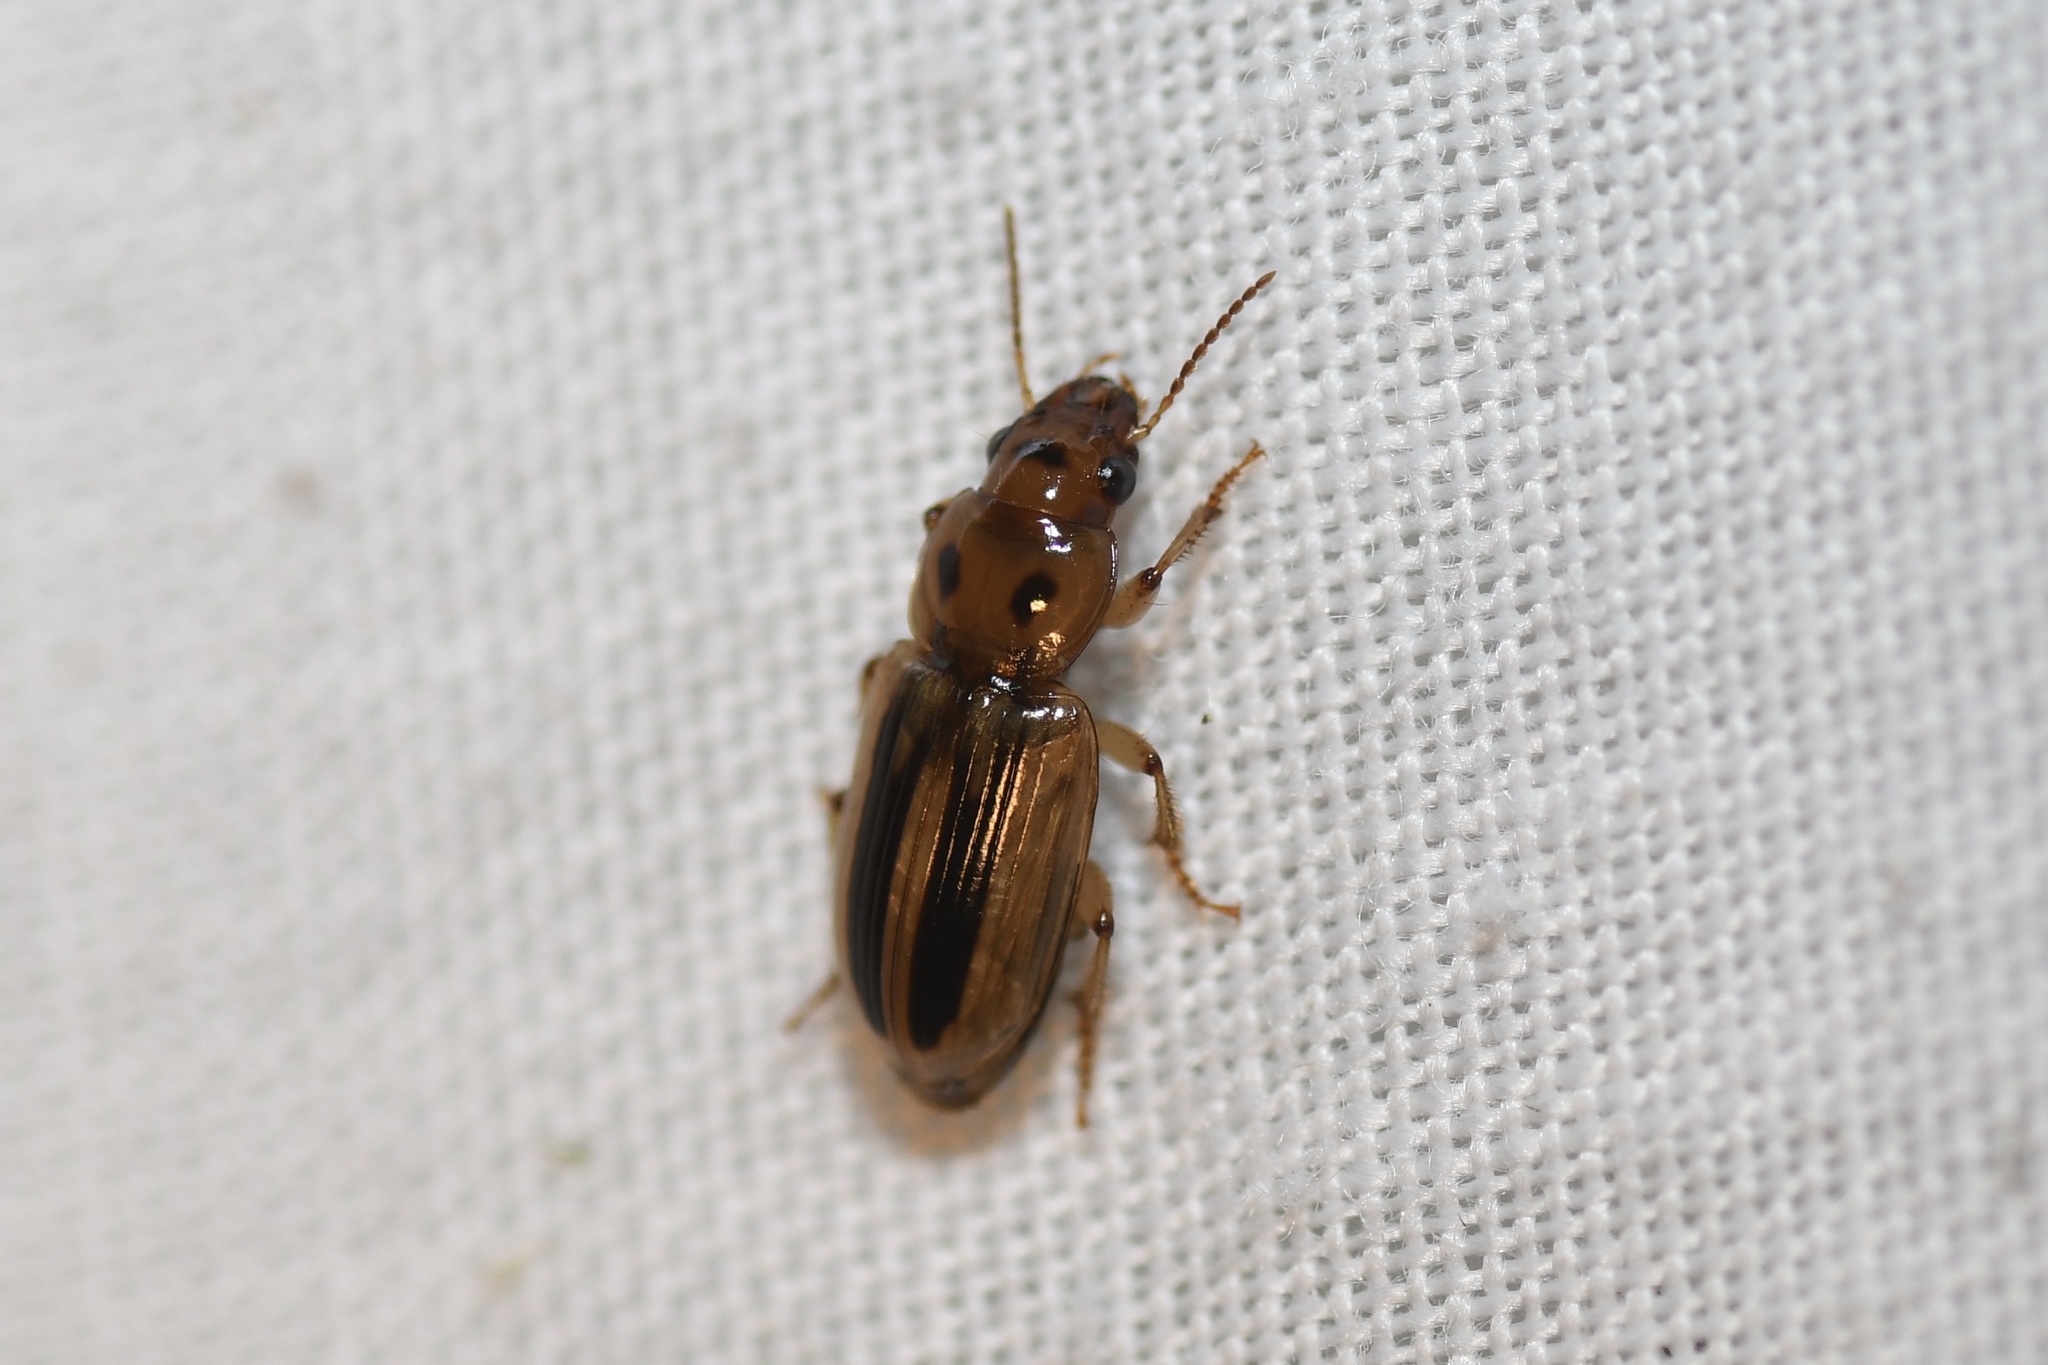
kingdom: Animalia
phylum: Arthropoda
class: Insecta
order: Coleoptera
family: Carabidae
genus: Stenolophus
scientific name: Stenolophus lineola
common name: Lined stenolophus
